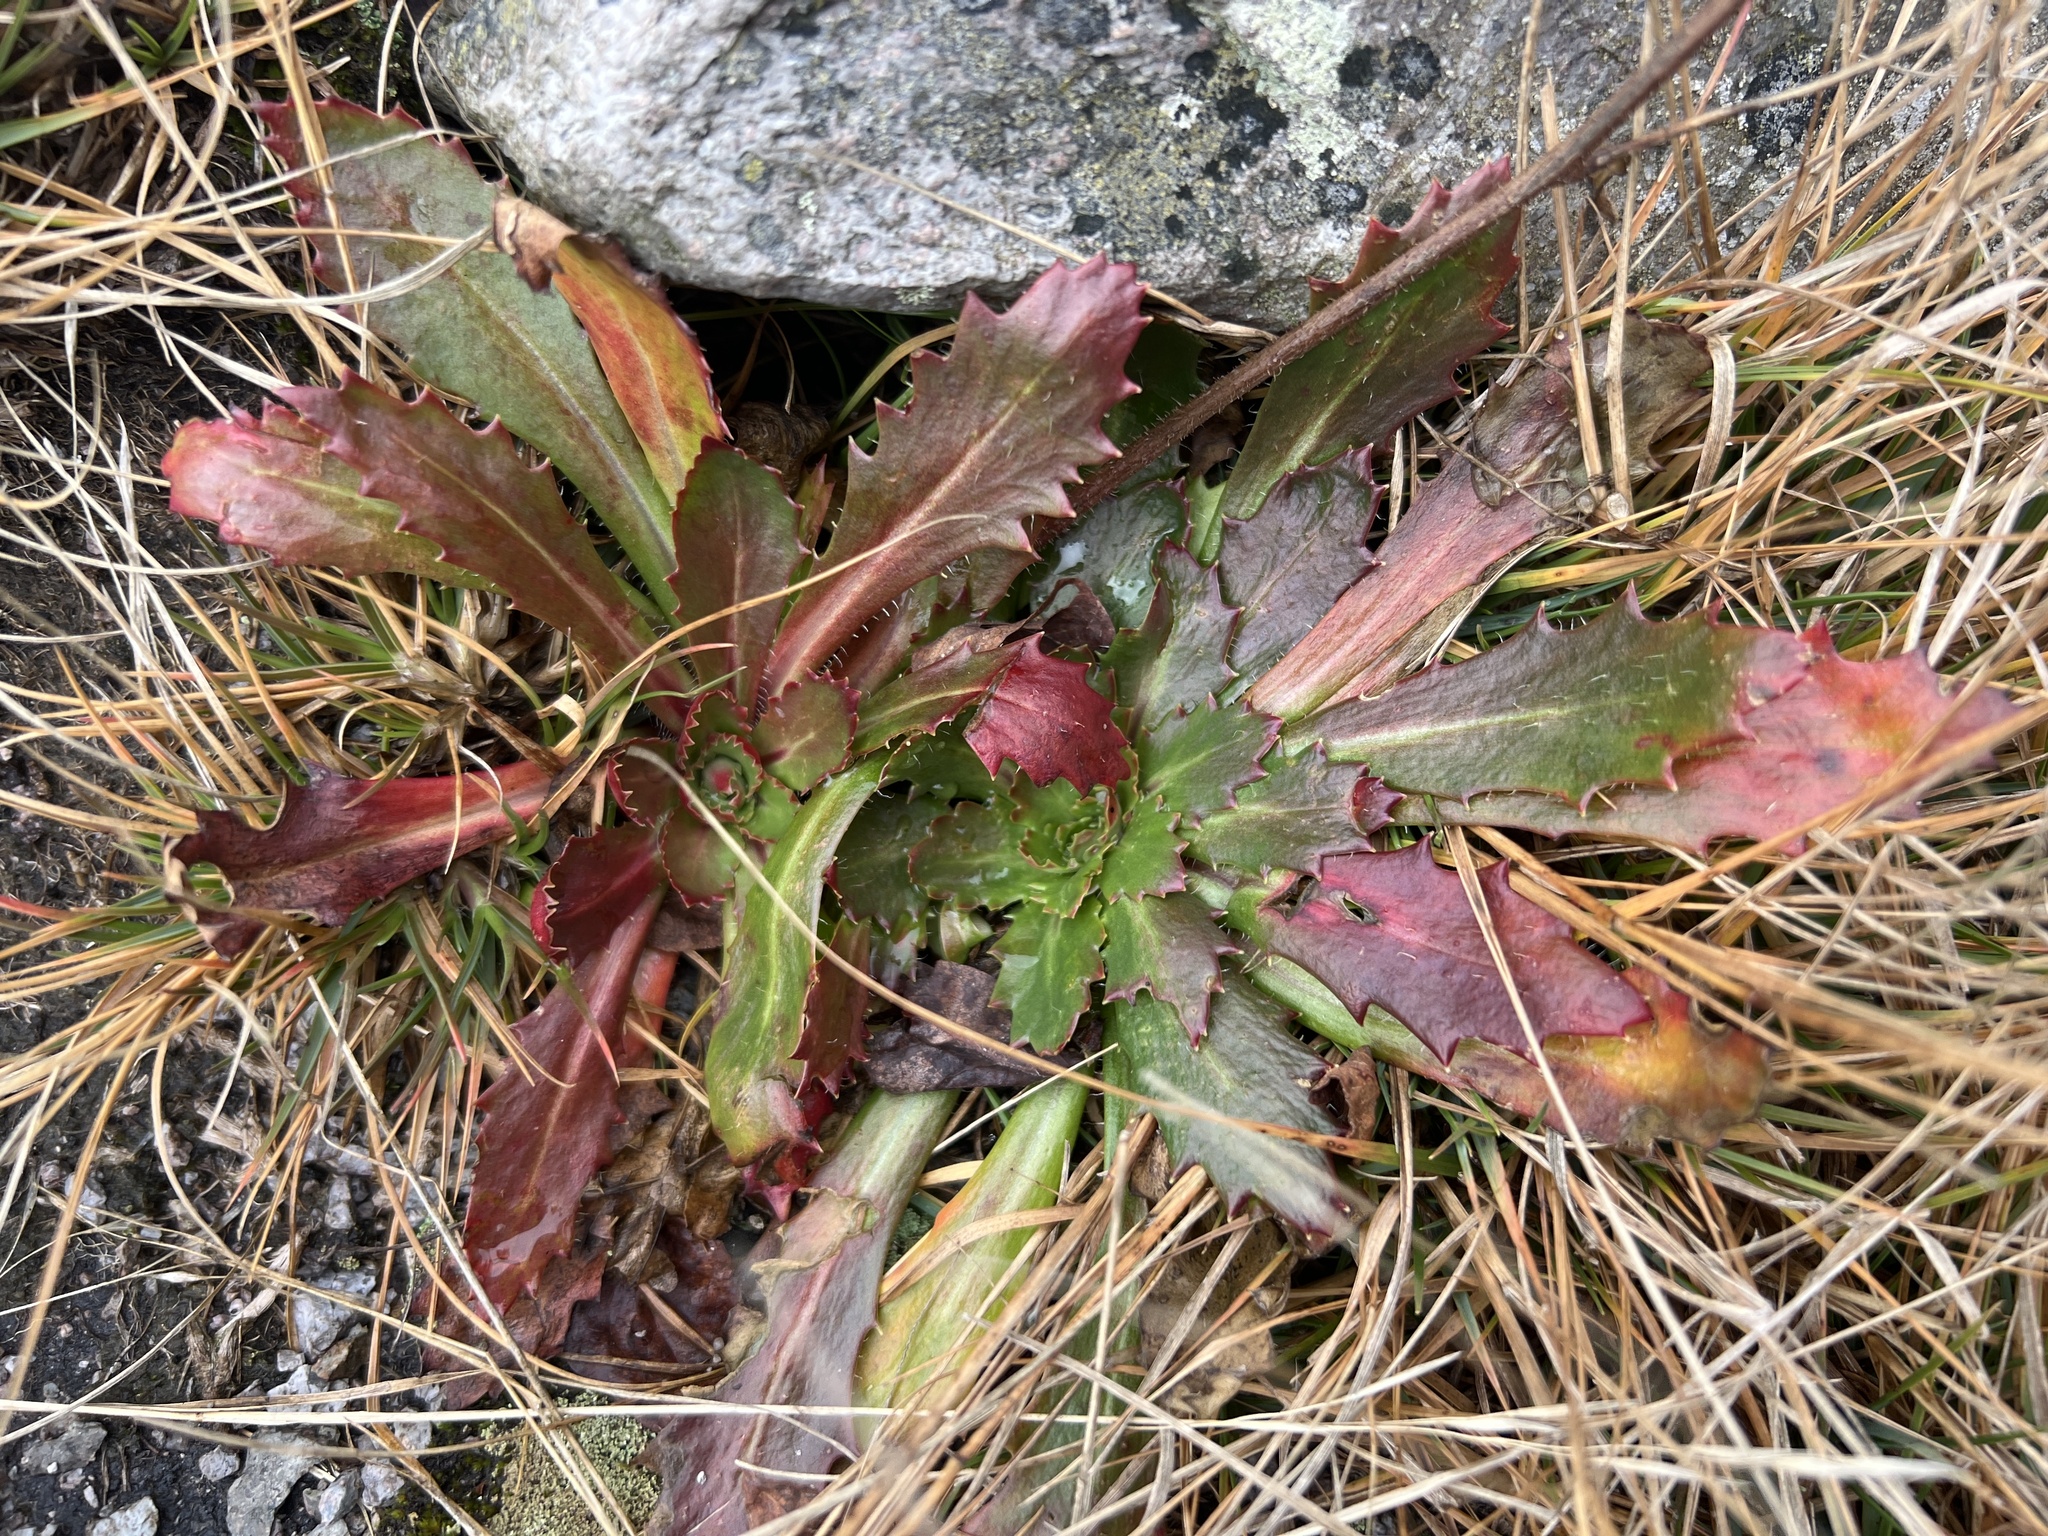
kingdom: Plantae
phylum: Tracheophyta
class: Magnoliopsida
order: Saxifragales
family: Saxifragaceae
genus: Micranthes
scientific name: Micranthes petiolaris
